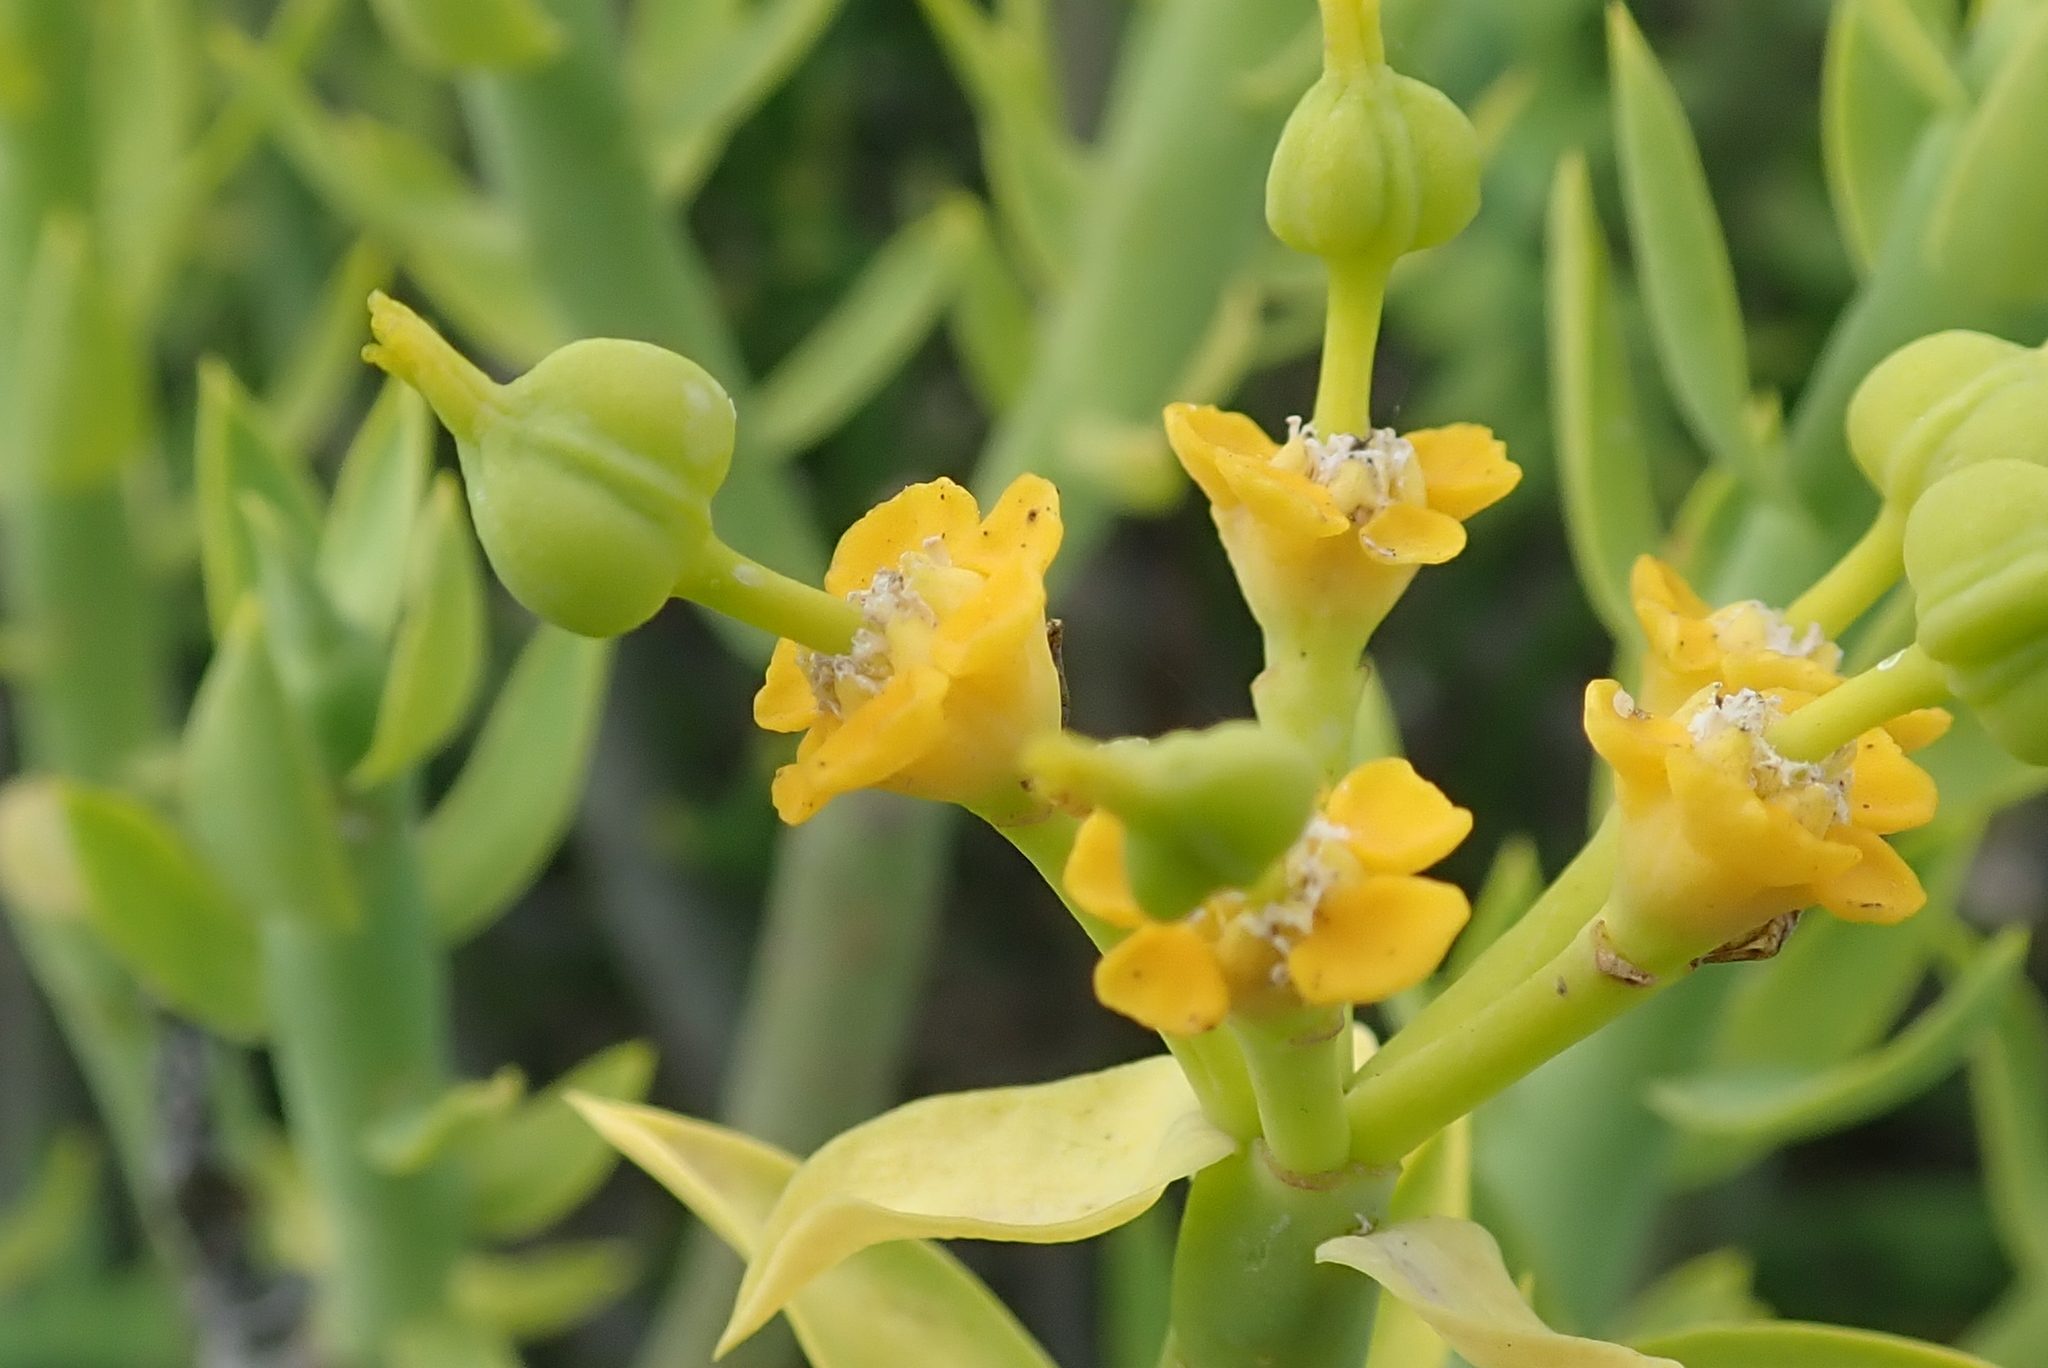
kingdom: Plantae
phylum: Tracheophyta
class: Magnoliopsida
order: Malpighiales
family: Euphorbiaceae
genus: Euphorbia
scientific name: Euphorbia mauritanica
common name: Jackal's-food
